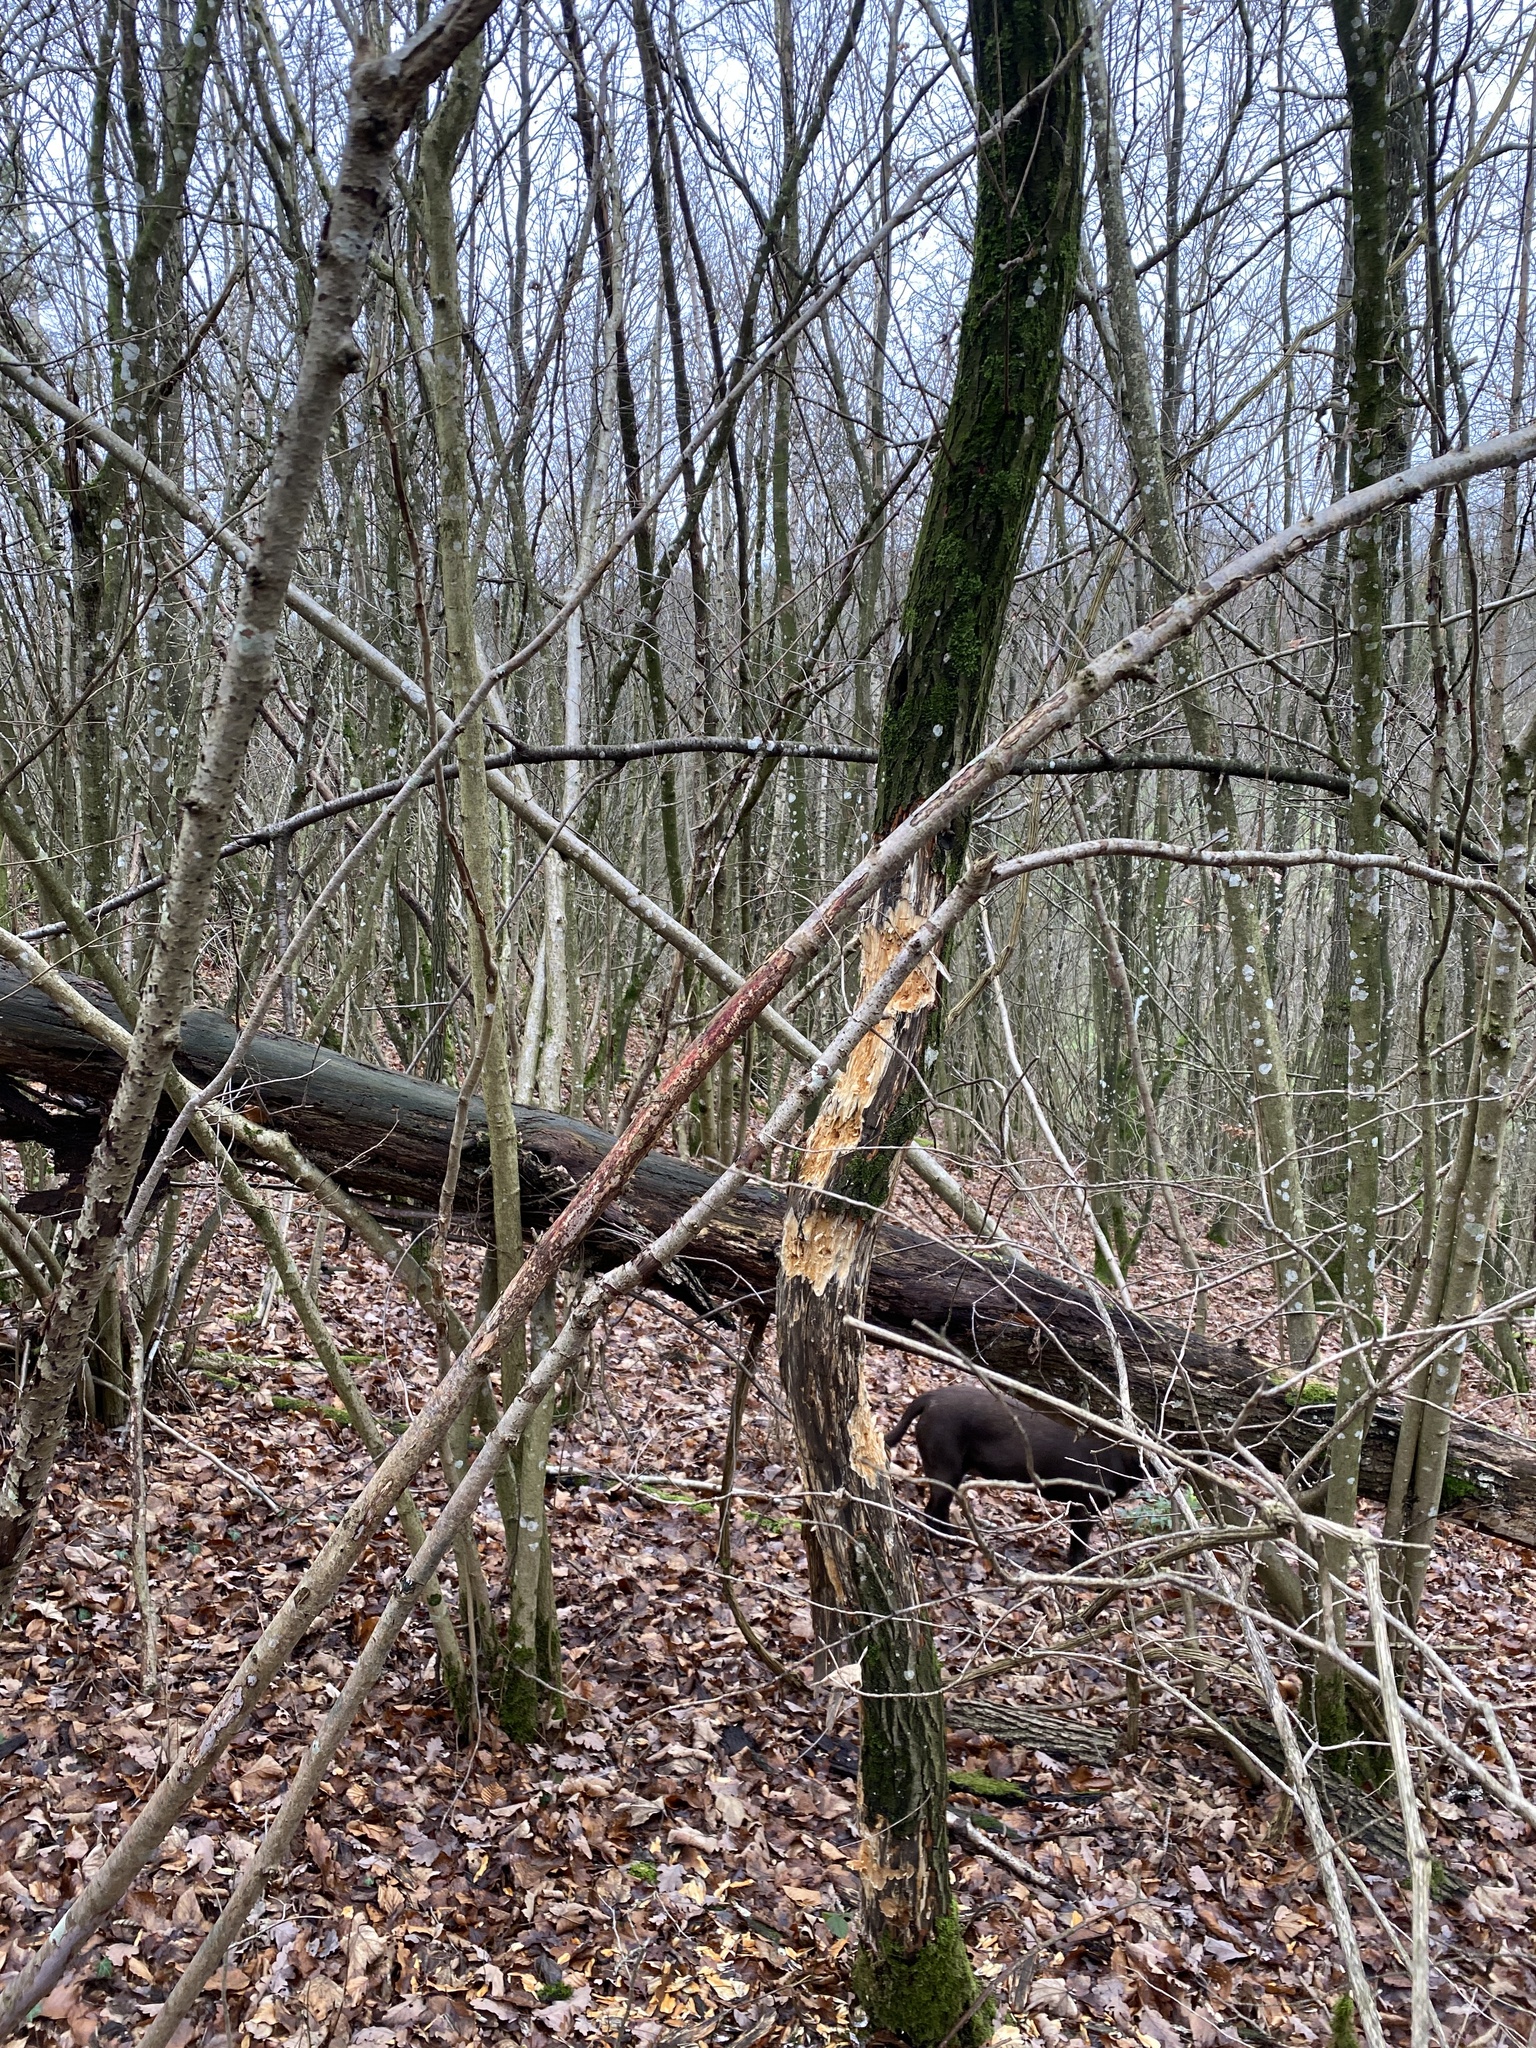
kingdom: Animalia
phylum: Chordata
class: Aves
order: Piciformes
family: Picidae
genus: Dryocopus
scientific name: Dryocopus martius
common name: Black woodpecker
